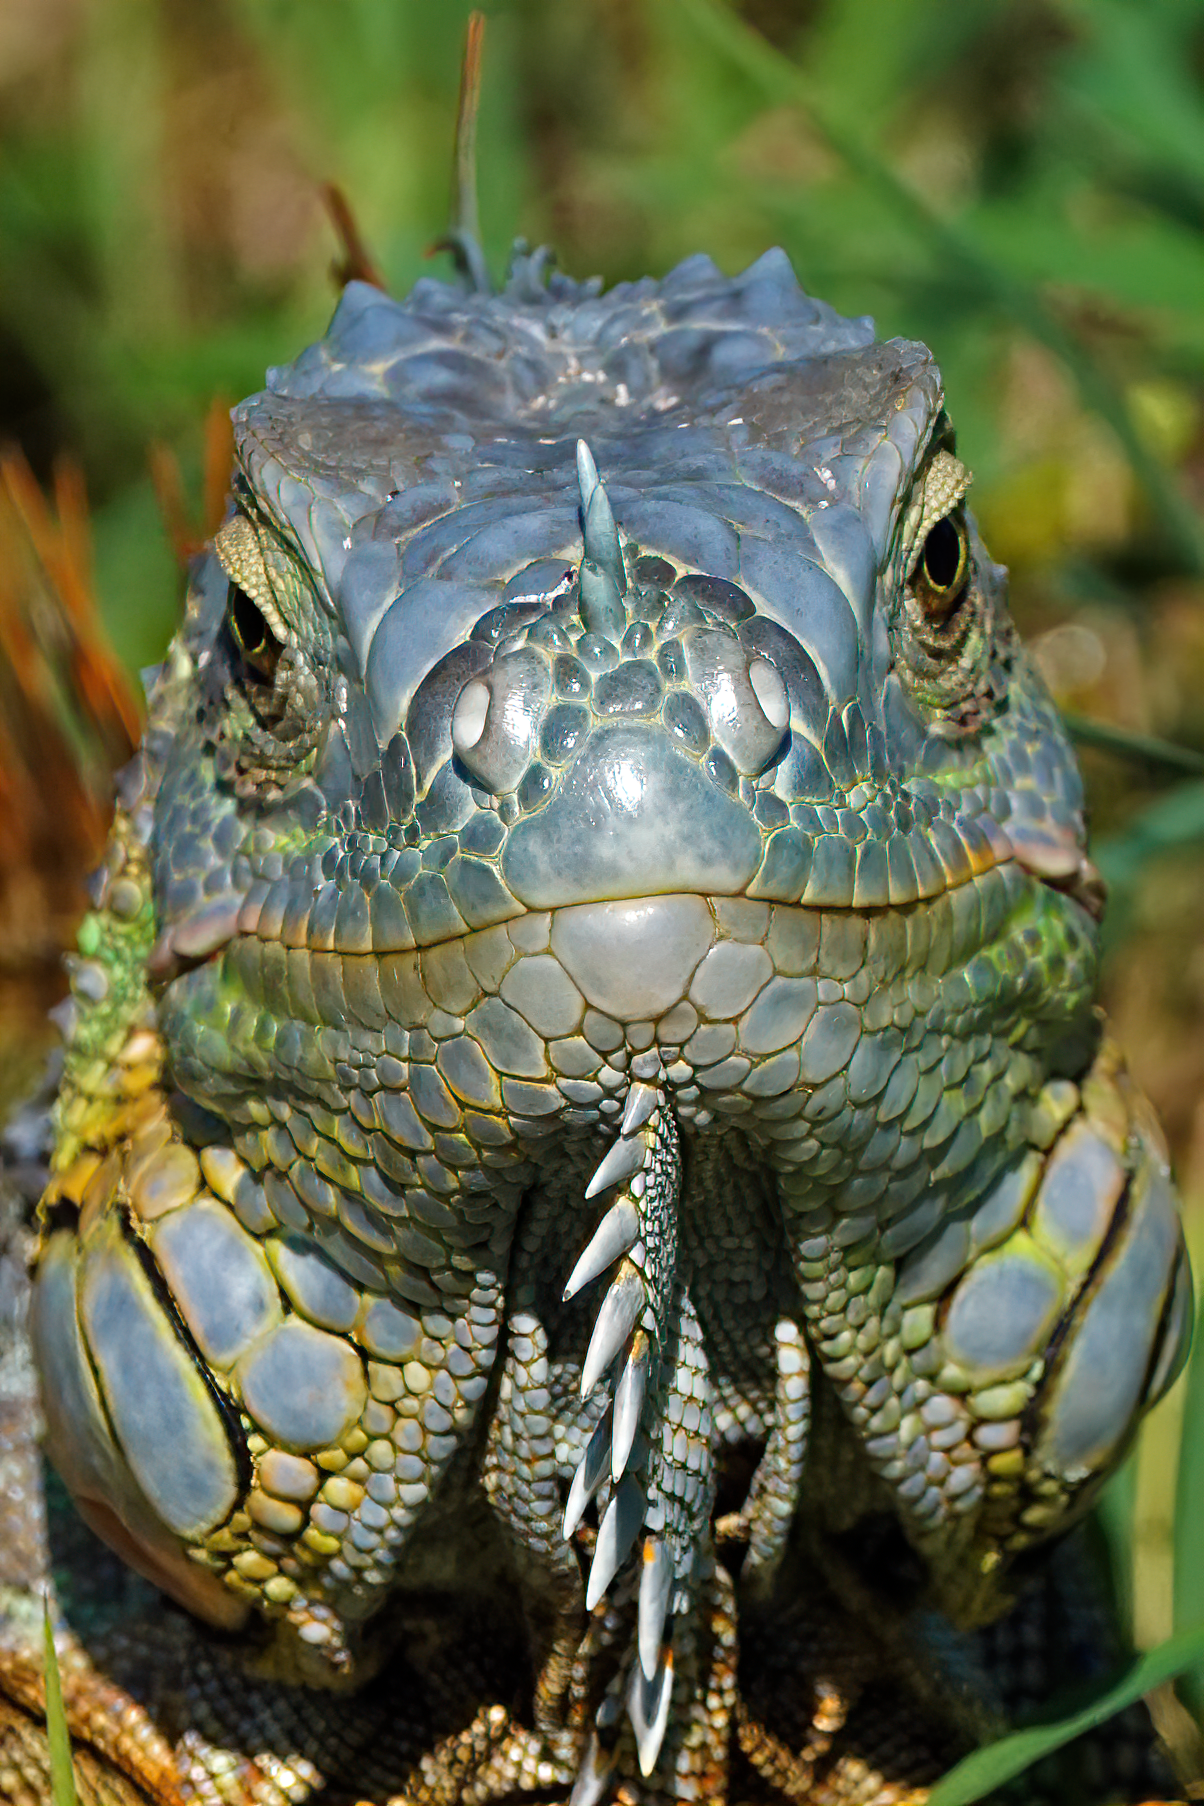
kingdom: Animalia
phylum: Chordata
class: Squamata
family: Iguanidae
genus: Iguana
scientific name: Iguana iguana
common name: Green iguana
